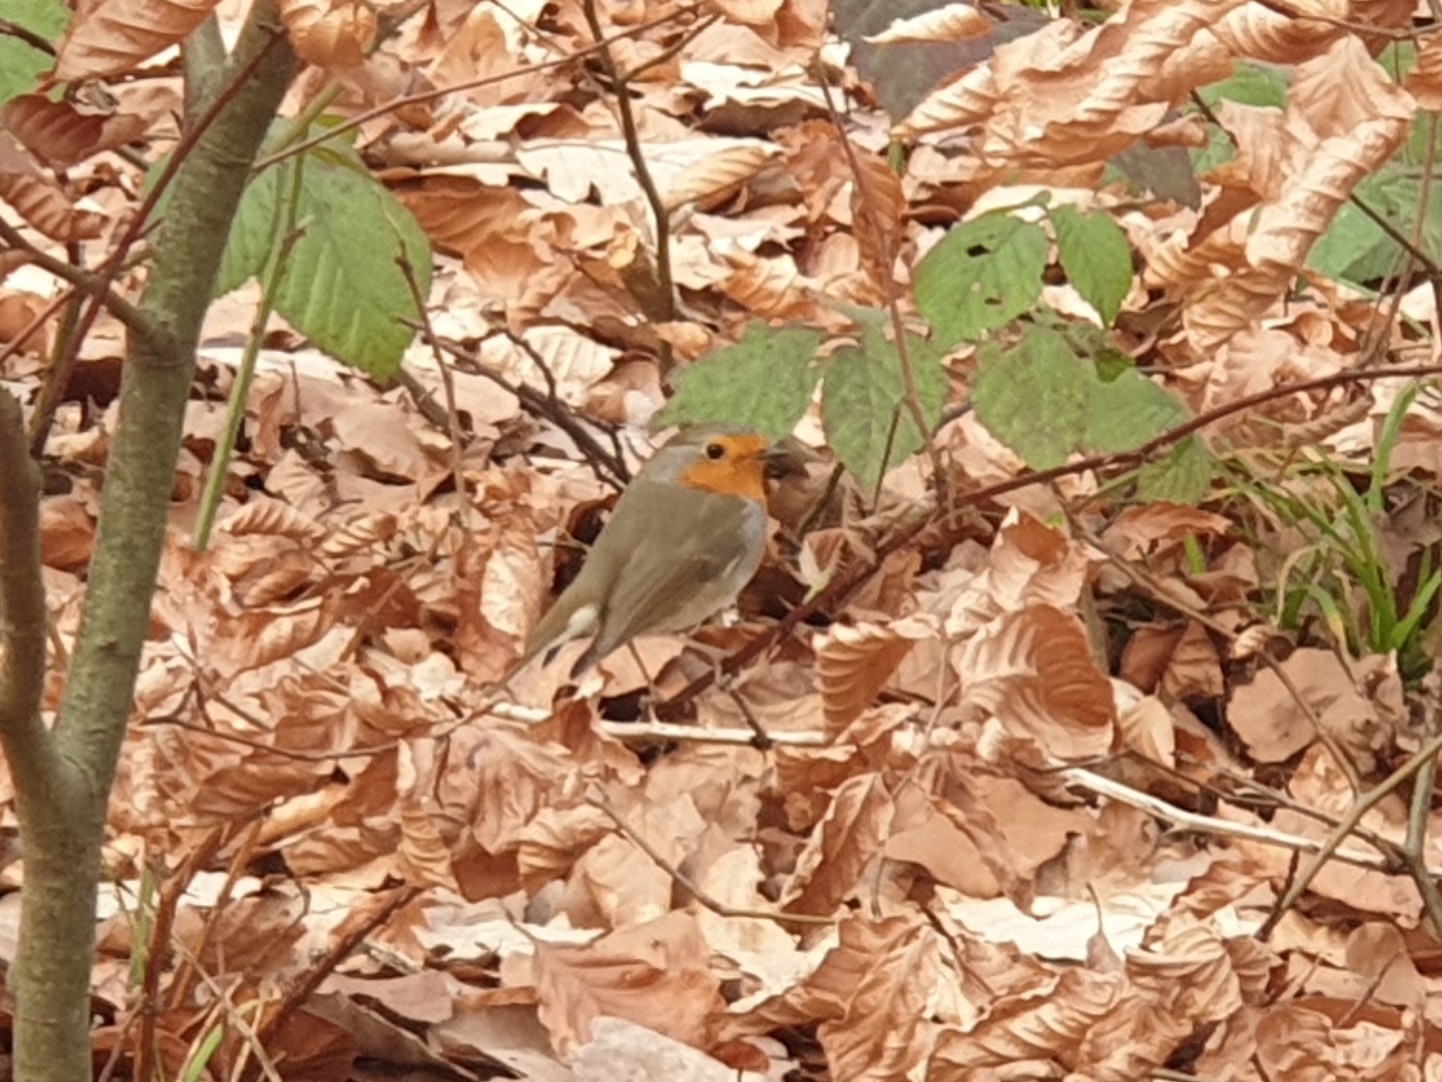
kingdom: Animalia
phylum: Chordata
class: Aves
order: Passeriformes
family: Muscicapidae
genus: Erithacus
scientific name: Erithacus rubecula
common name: European robin
